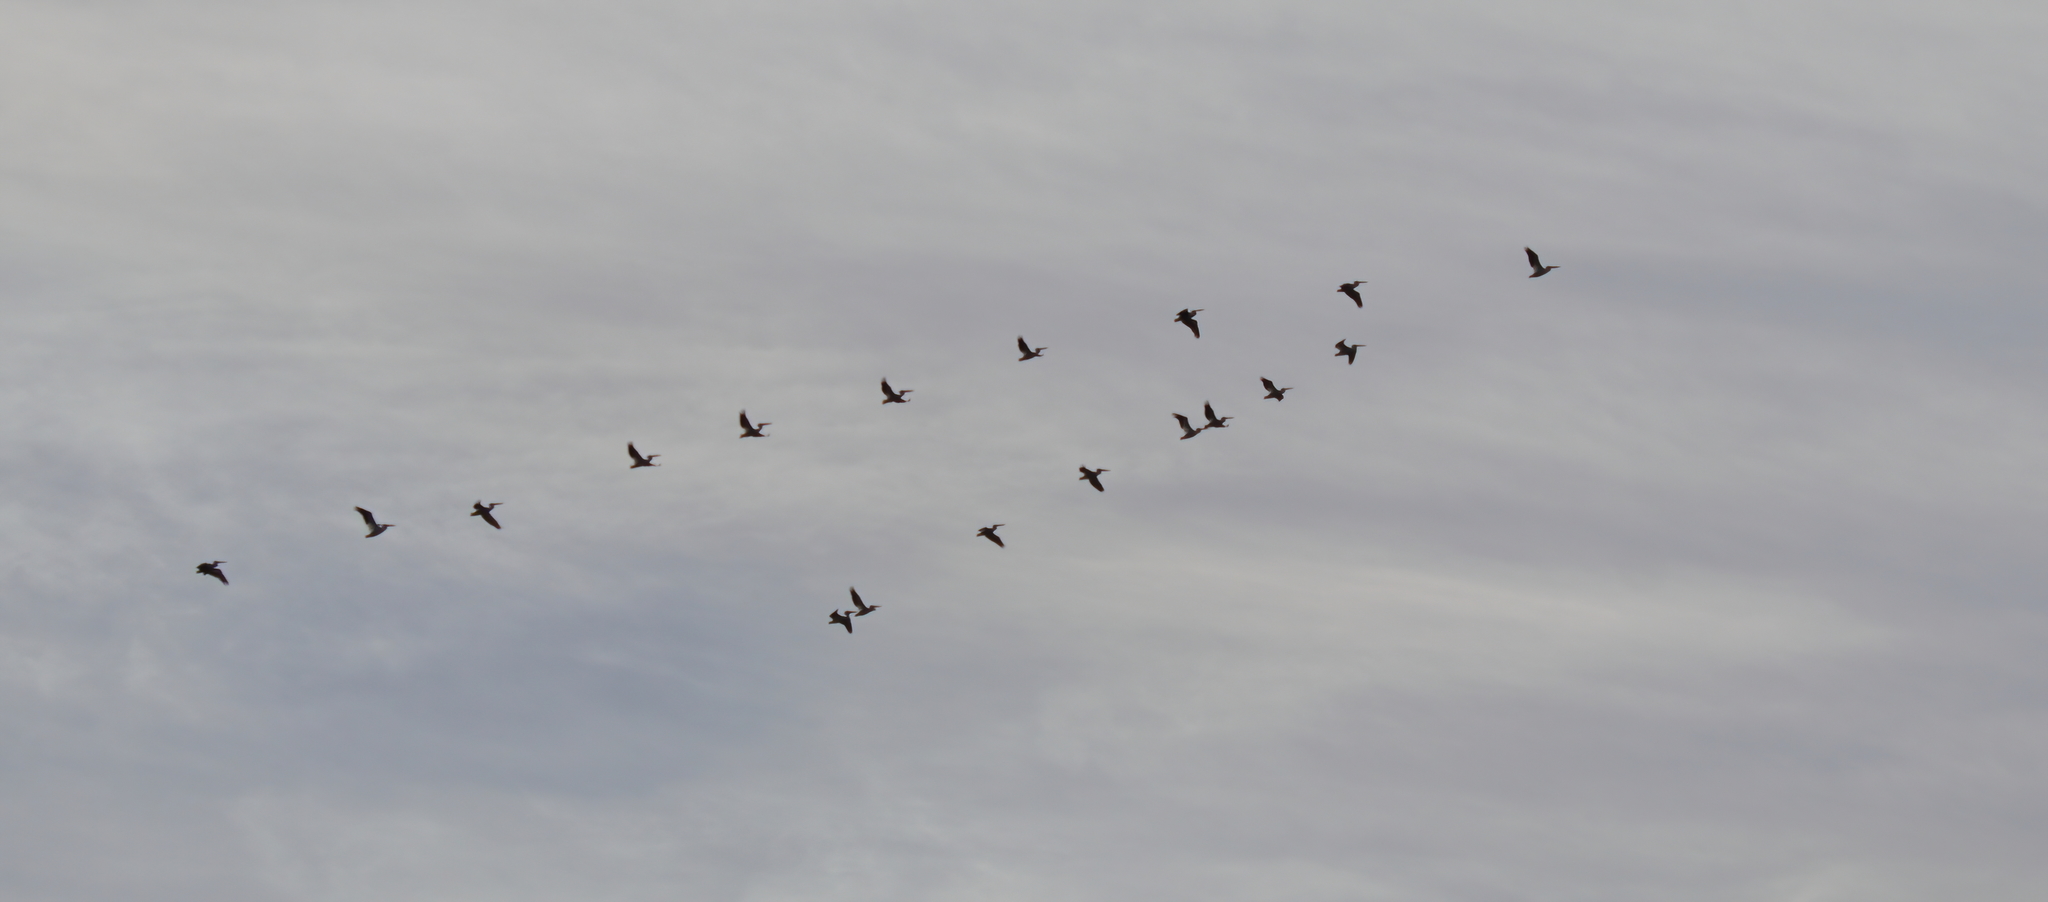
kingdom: Animalia
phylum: Chordata
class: Aves
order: Pelecaniformes
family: Pelecanidae
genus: Pelecanus
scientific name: Pelecanus erythrorhynchos
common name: American white pelican
